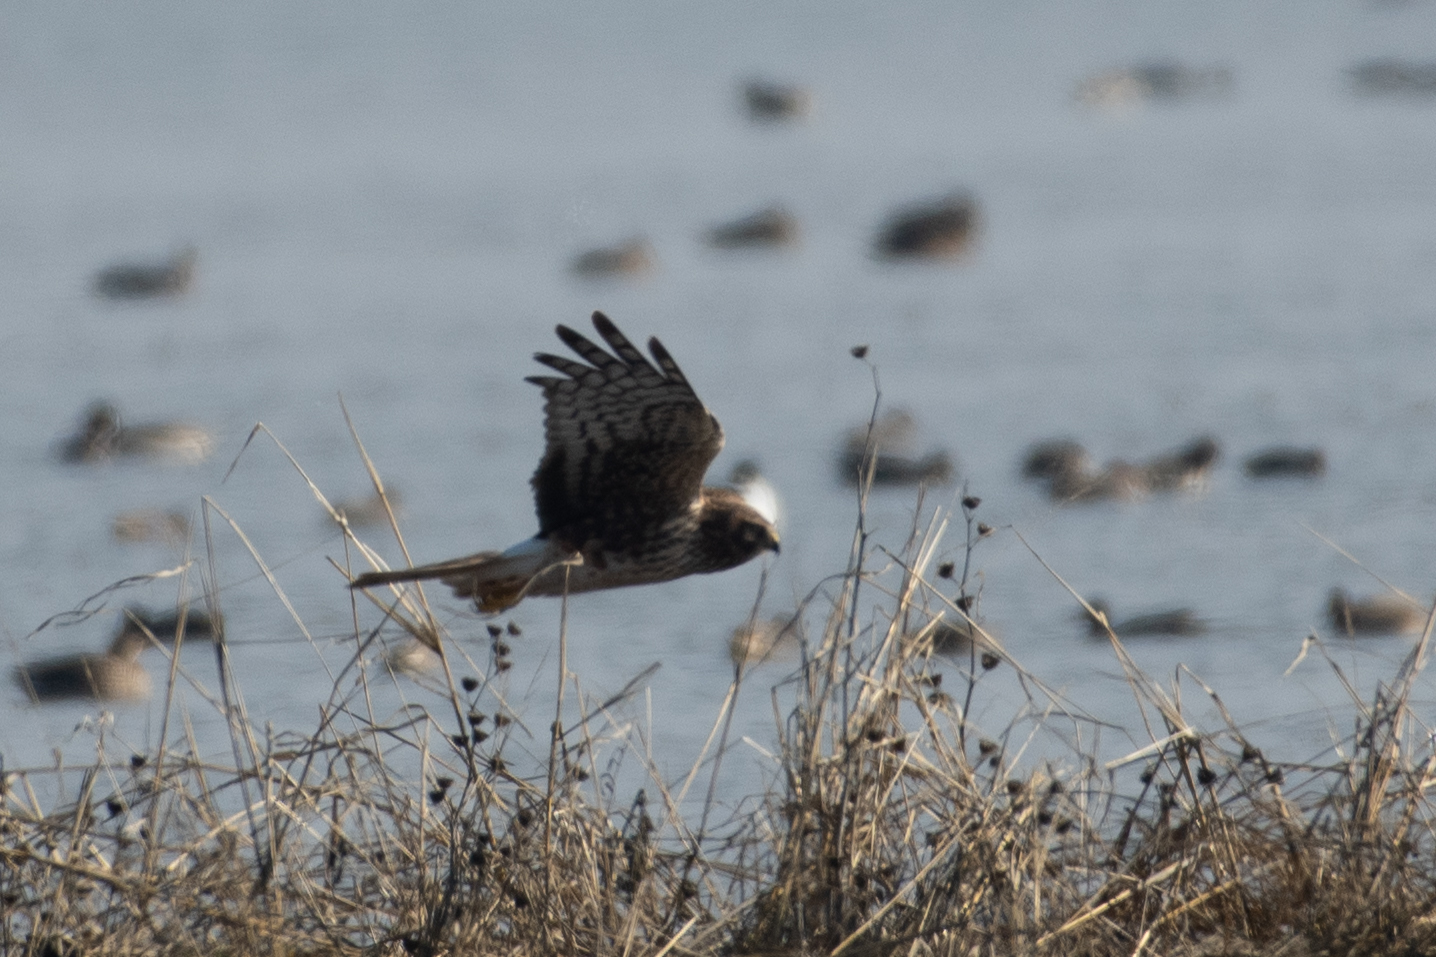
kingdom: Animalia
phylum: Chordata
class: Aves
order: Accipitriformes
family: Accipitridae
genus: Circus
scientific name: Circus cyaneus
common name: Hen harrier
